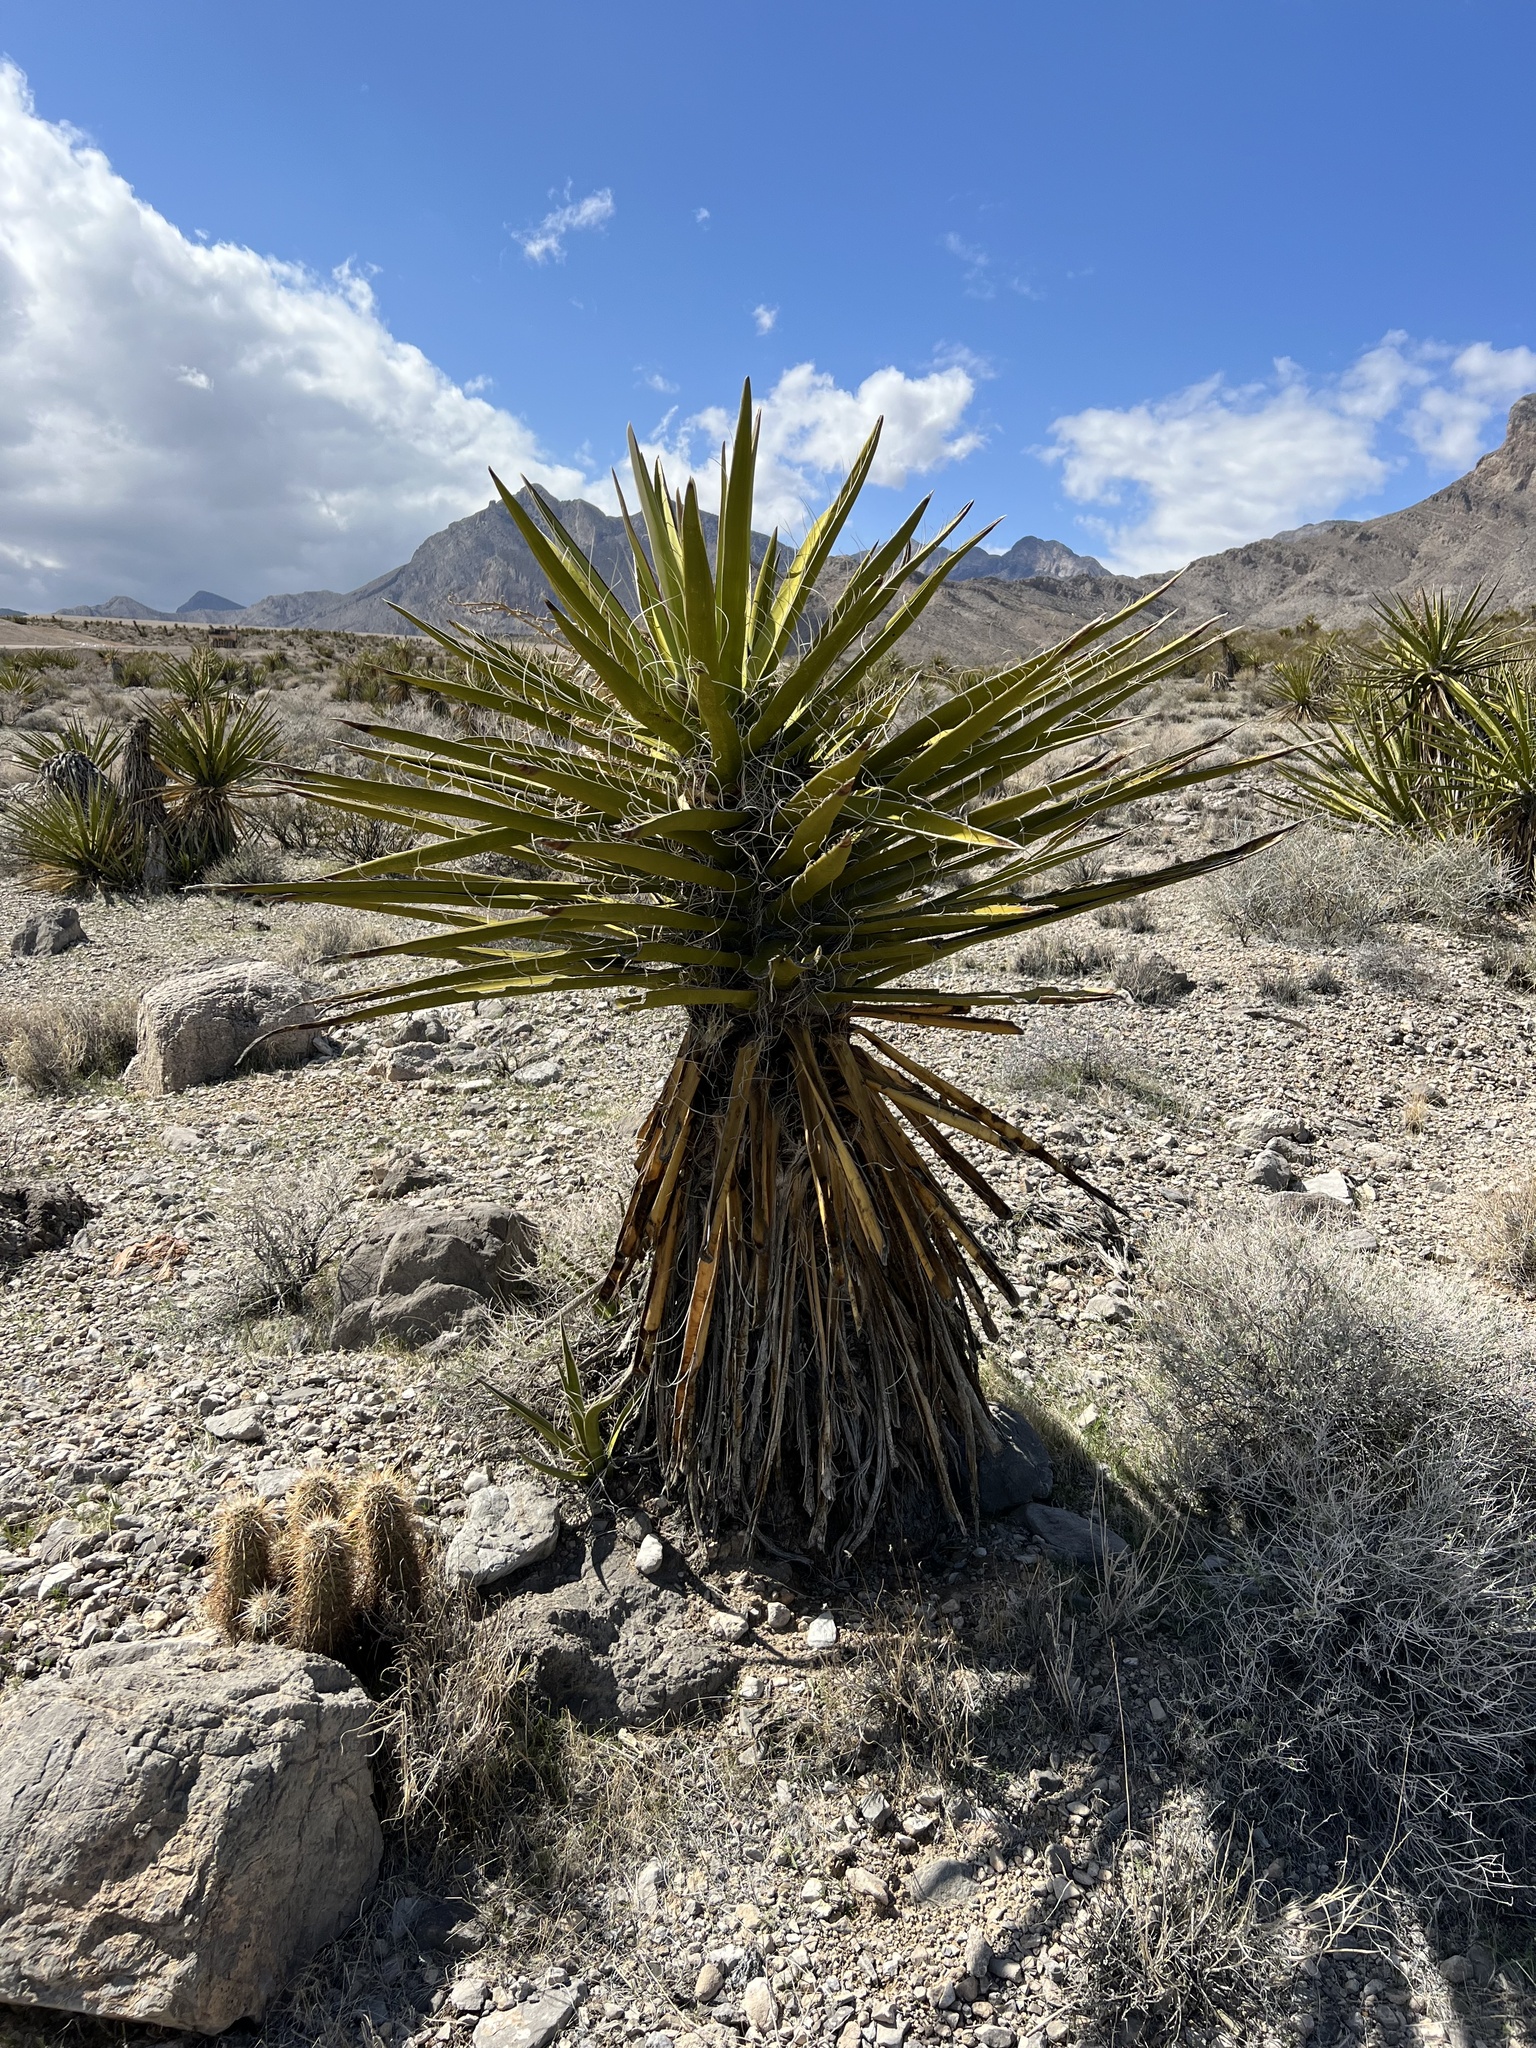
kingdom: Plantae
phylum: Tracheophyta
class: Liliopsida
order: Asparagales
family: Asparagaceae
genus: Yucca
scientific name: Yucca schidigera
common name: Mojave yucca
